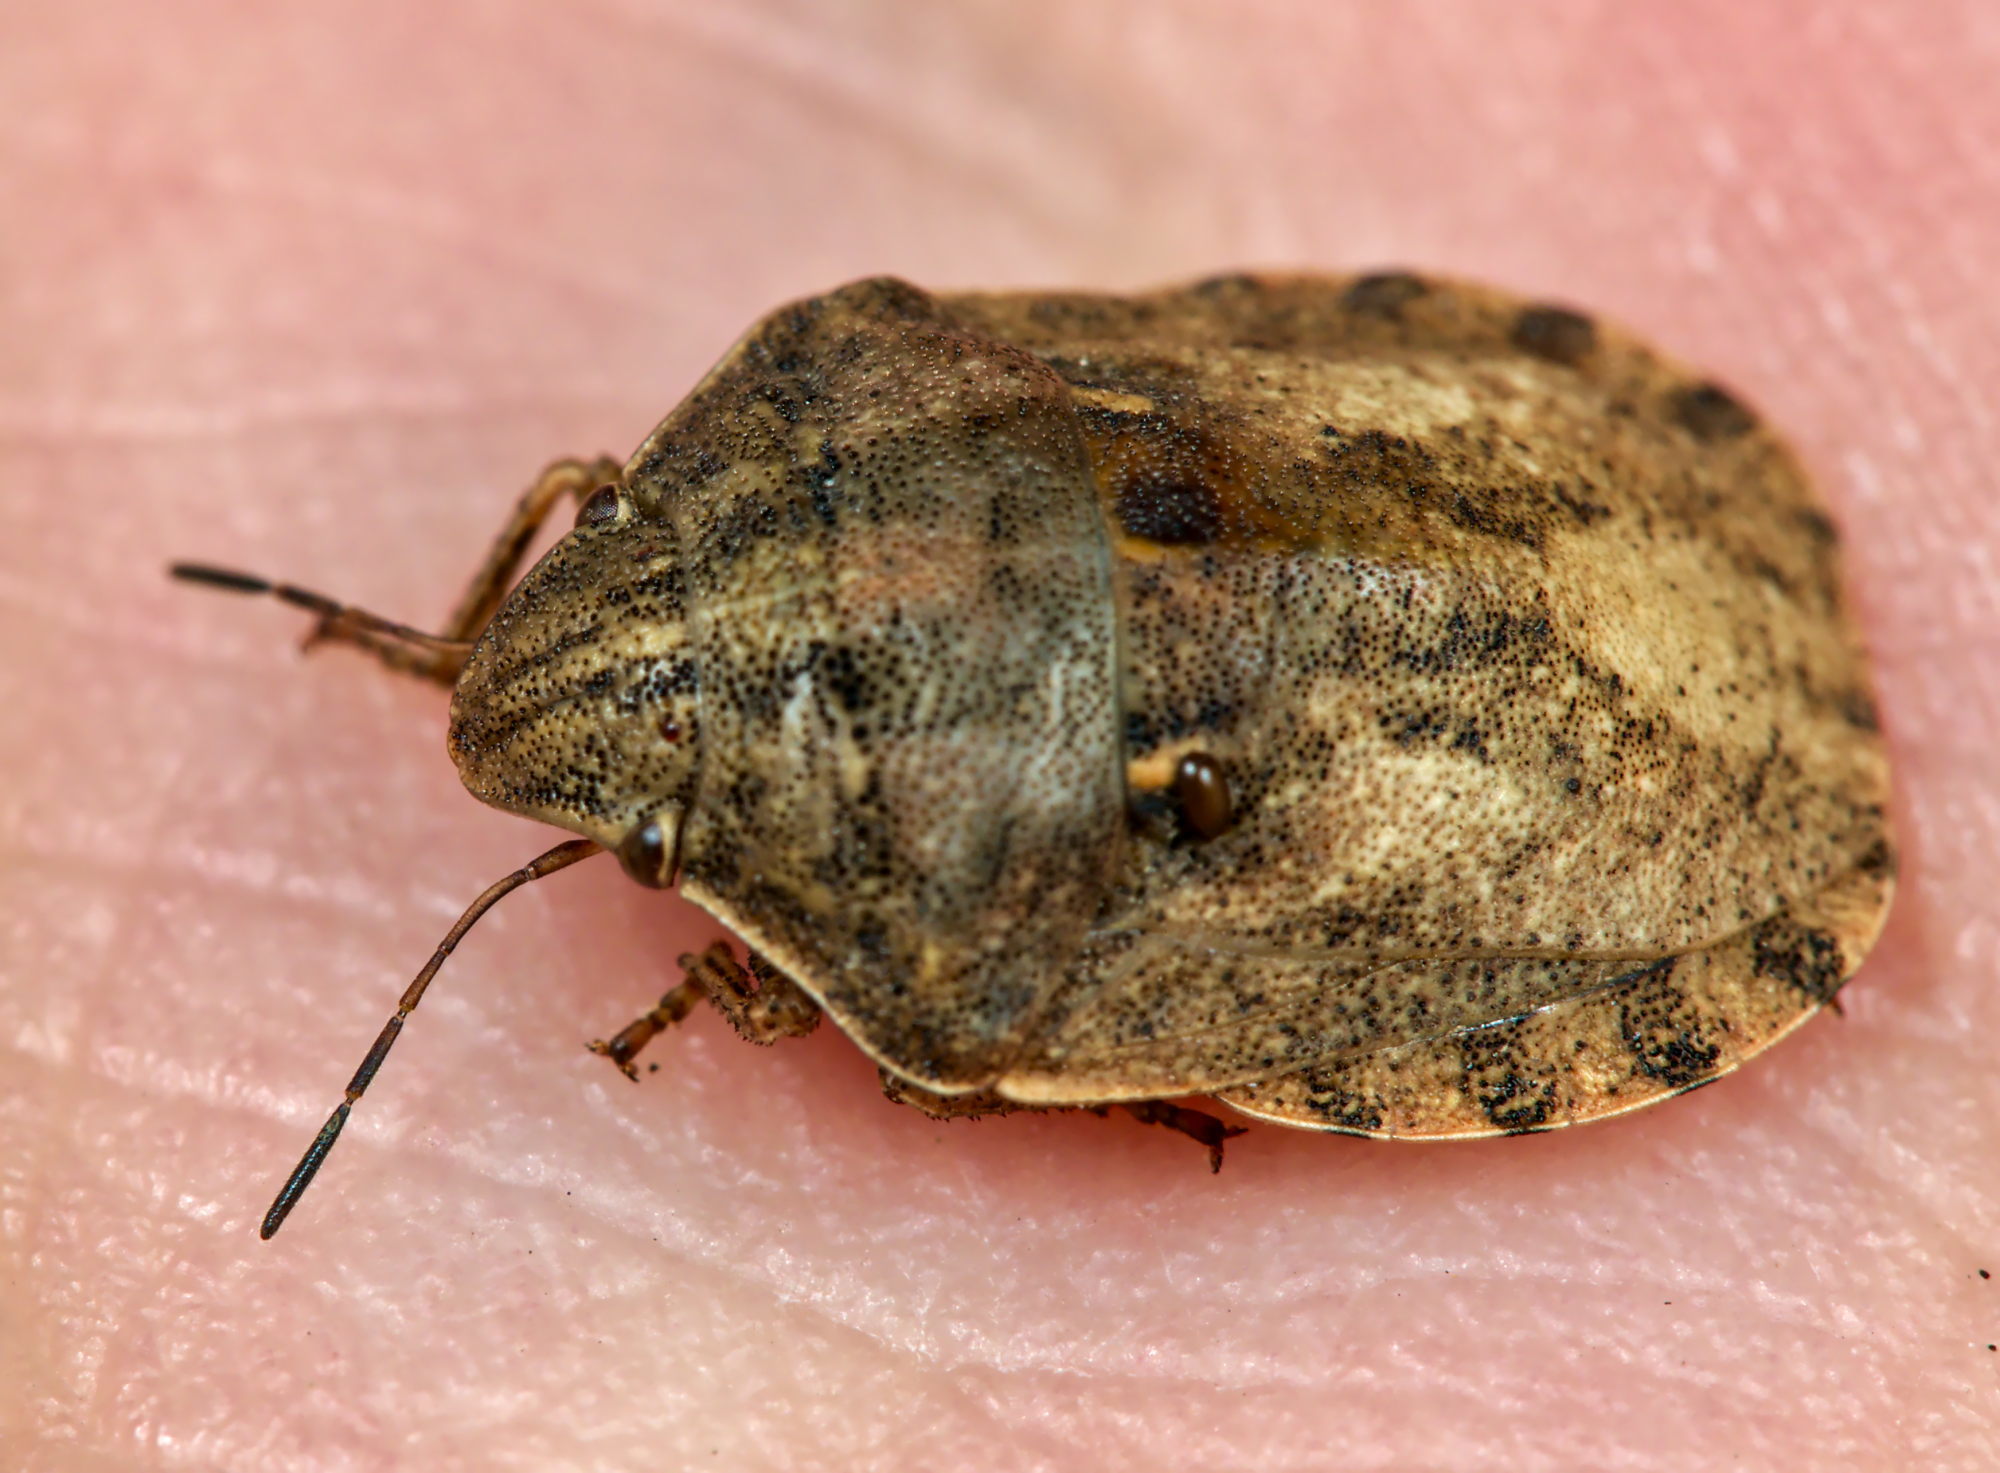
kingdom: Animalia
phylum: Arthropoda
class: Insecta
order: Hemiptera
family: Scutelleridae
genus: Eurygaster
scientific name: Eurygaster testudinaria
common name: Tortoise bug
